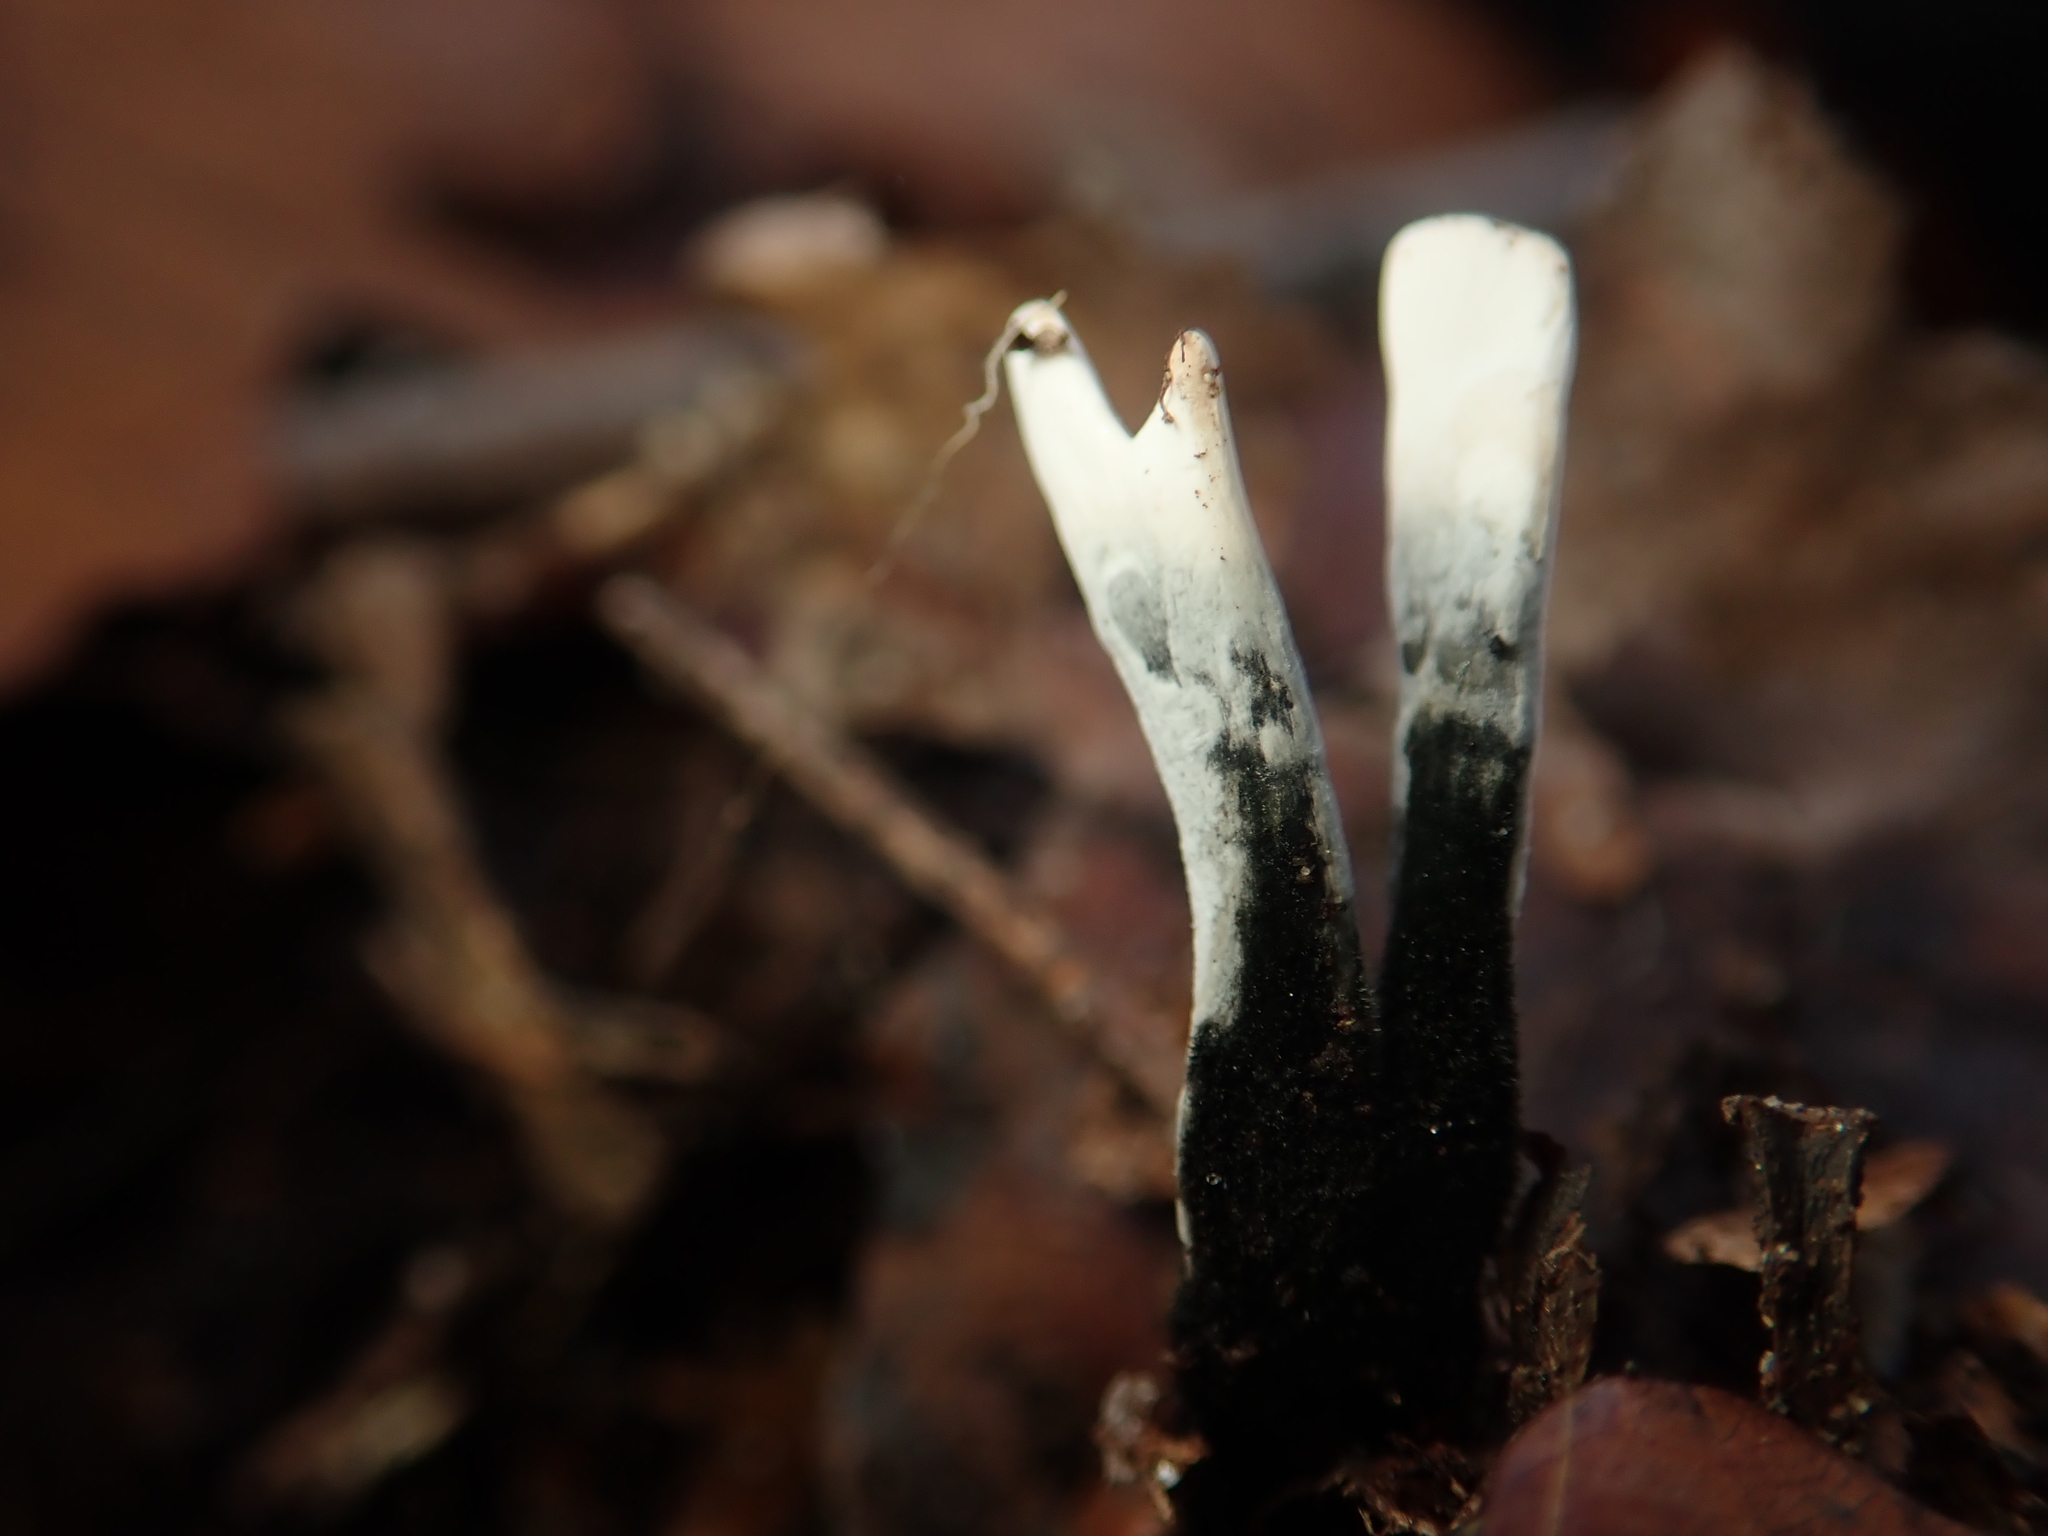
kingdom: Fungi
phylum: Ascomycota
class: Sordariomycetes
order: Xylariales
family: Xylariaceae
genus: Xylaria
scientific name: Xylaria hypoxylon
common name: Candle-snuff fungus
